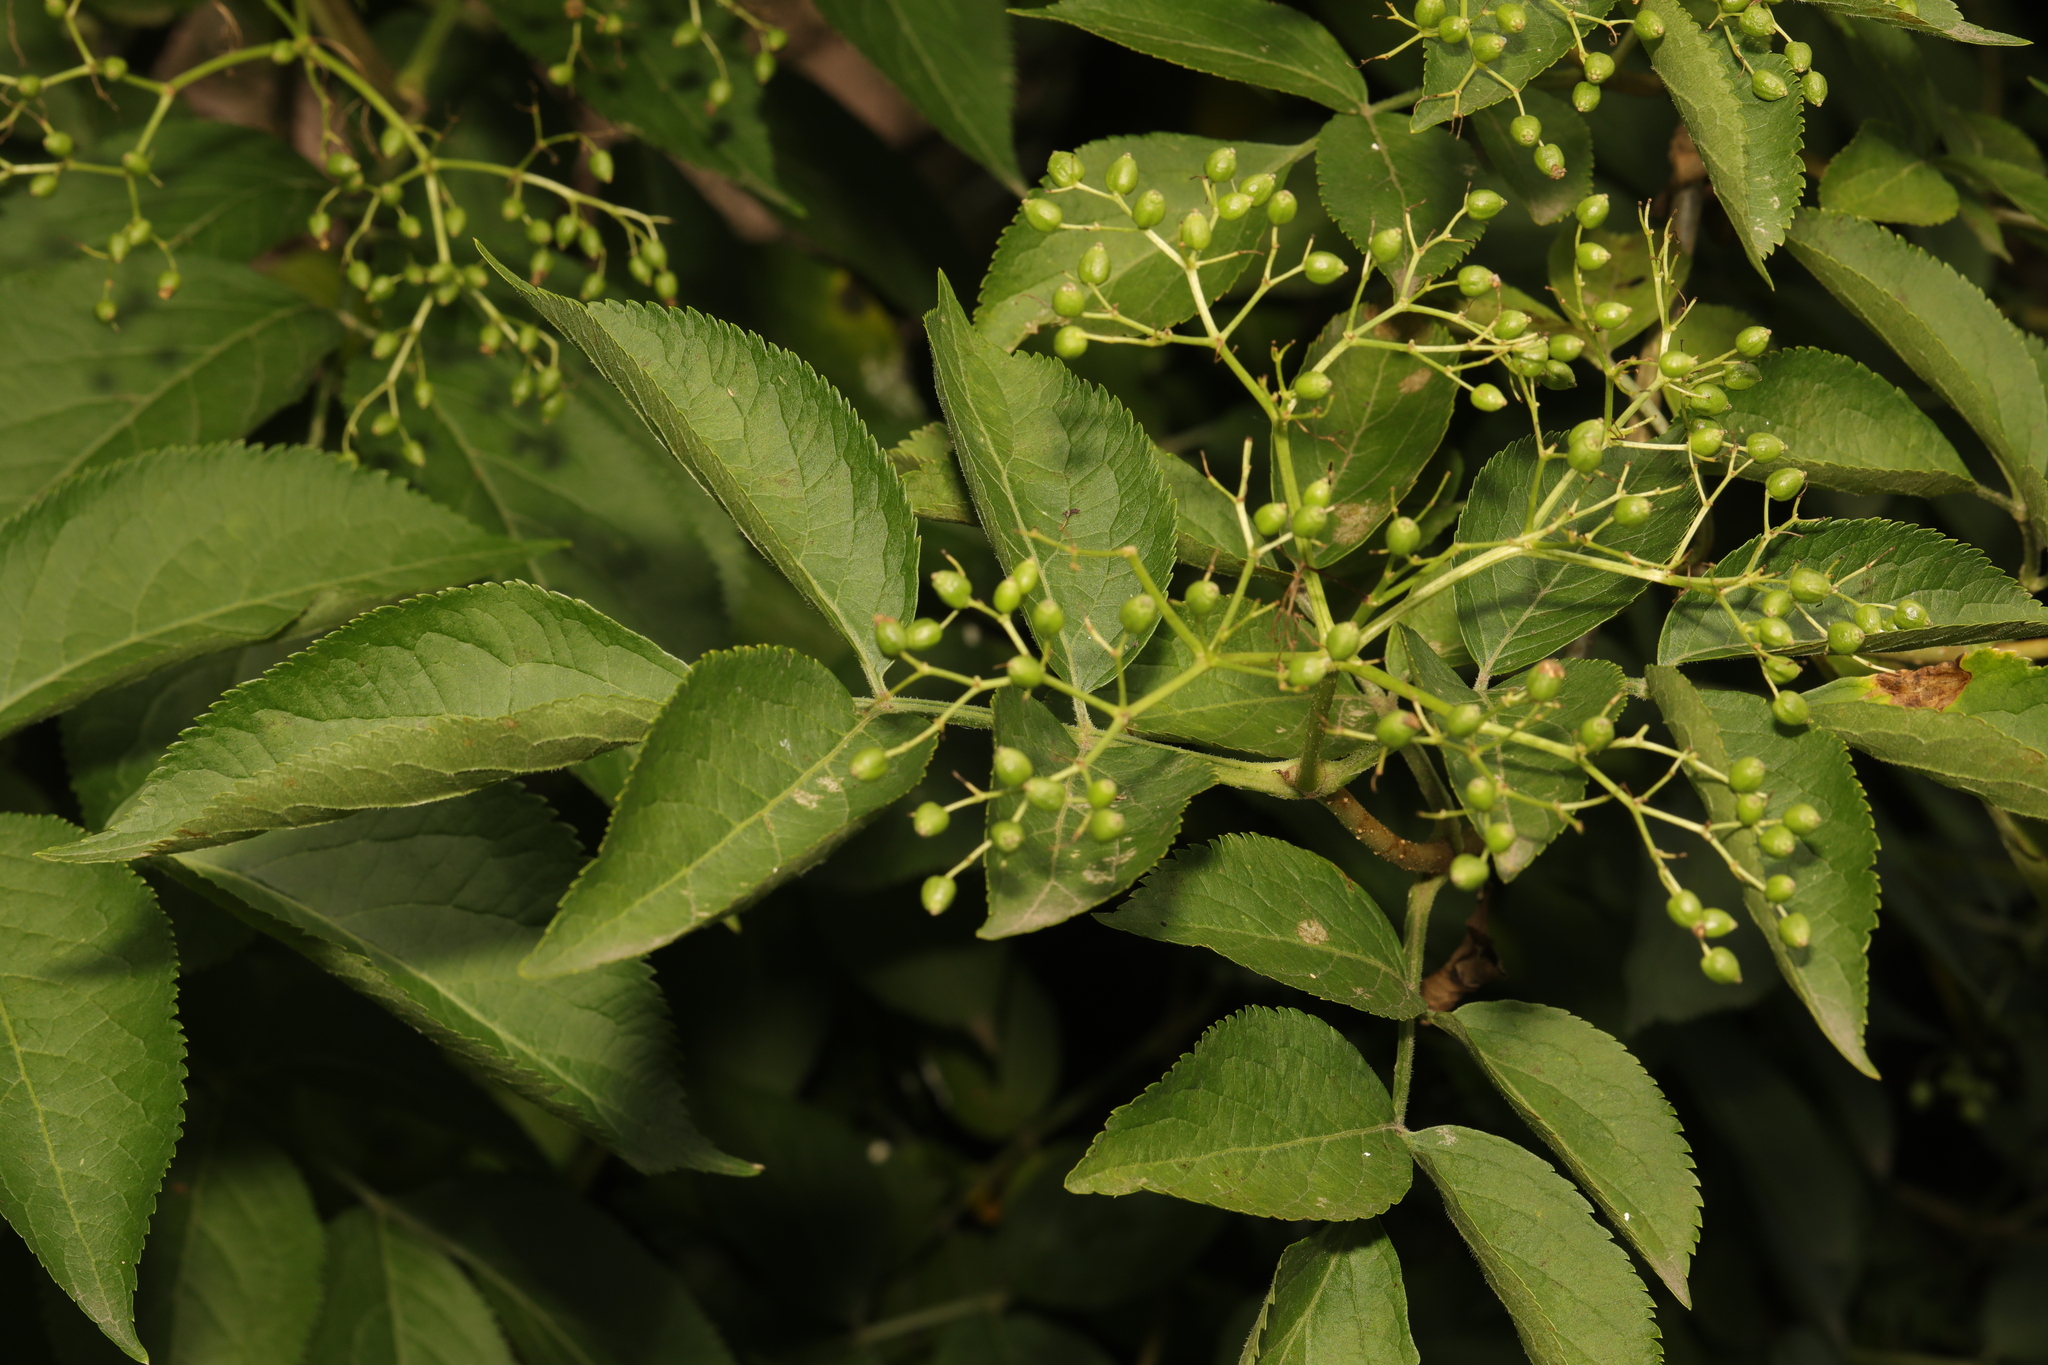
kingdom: Plantae
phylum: Tracheophyta
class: Magnoliopsida
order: Dipsacales
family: Viburnaceae
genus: Sambucus
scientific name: Sambucus nigra
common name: Elder
